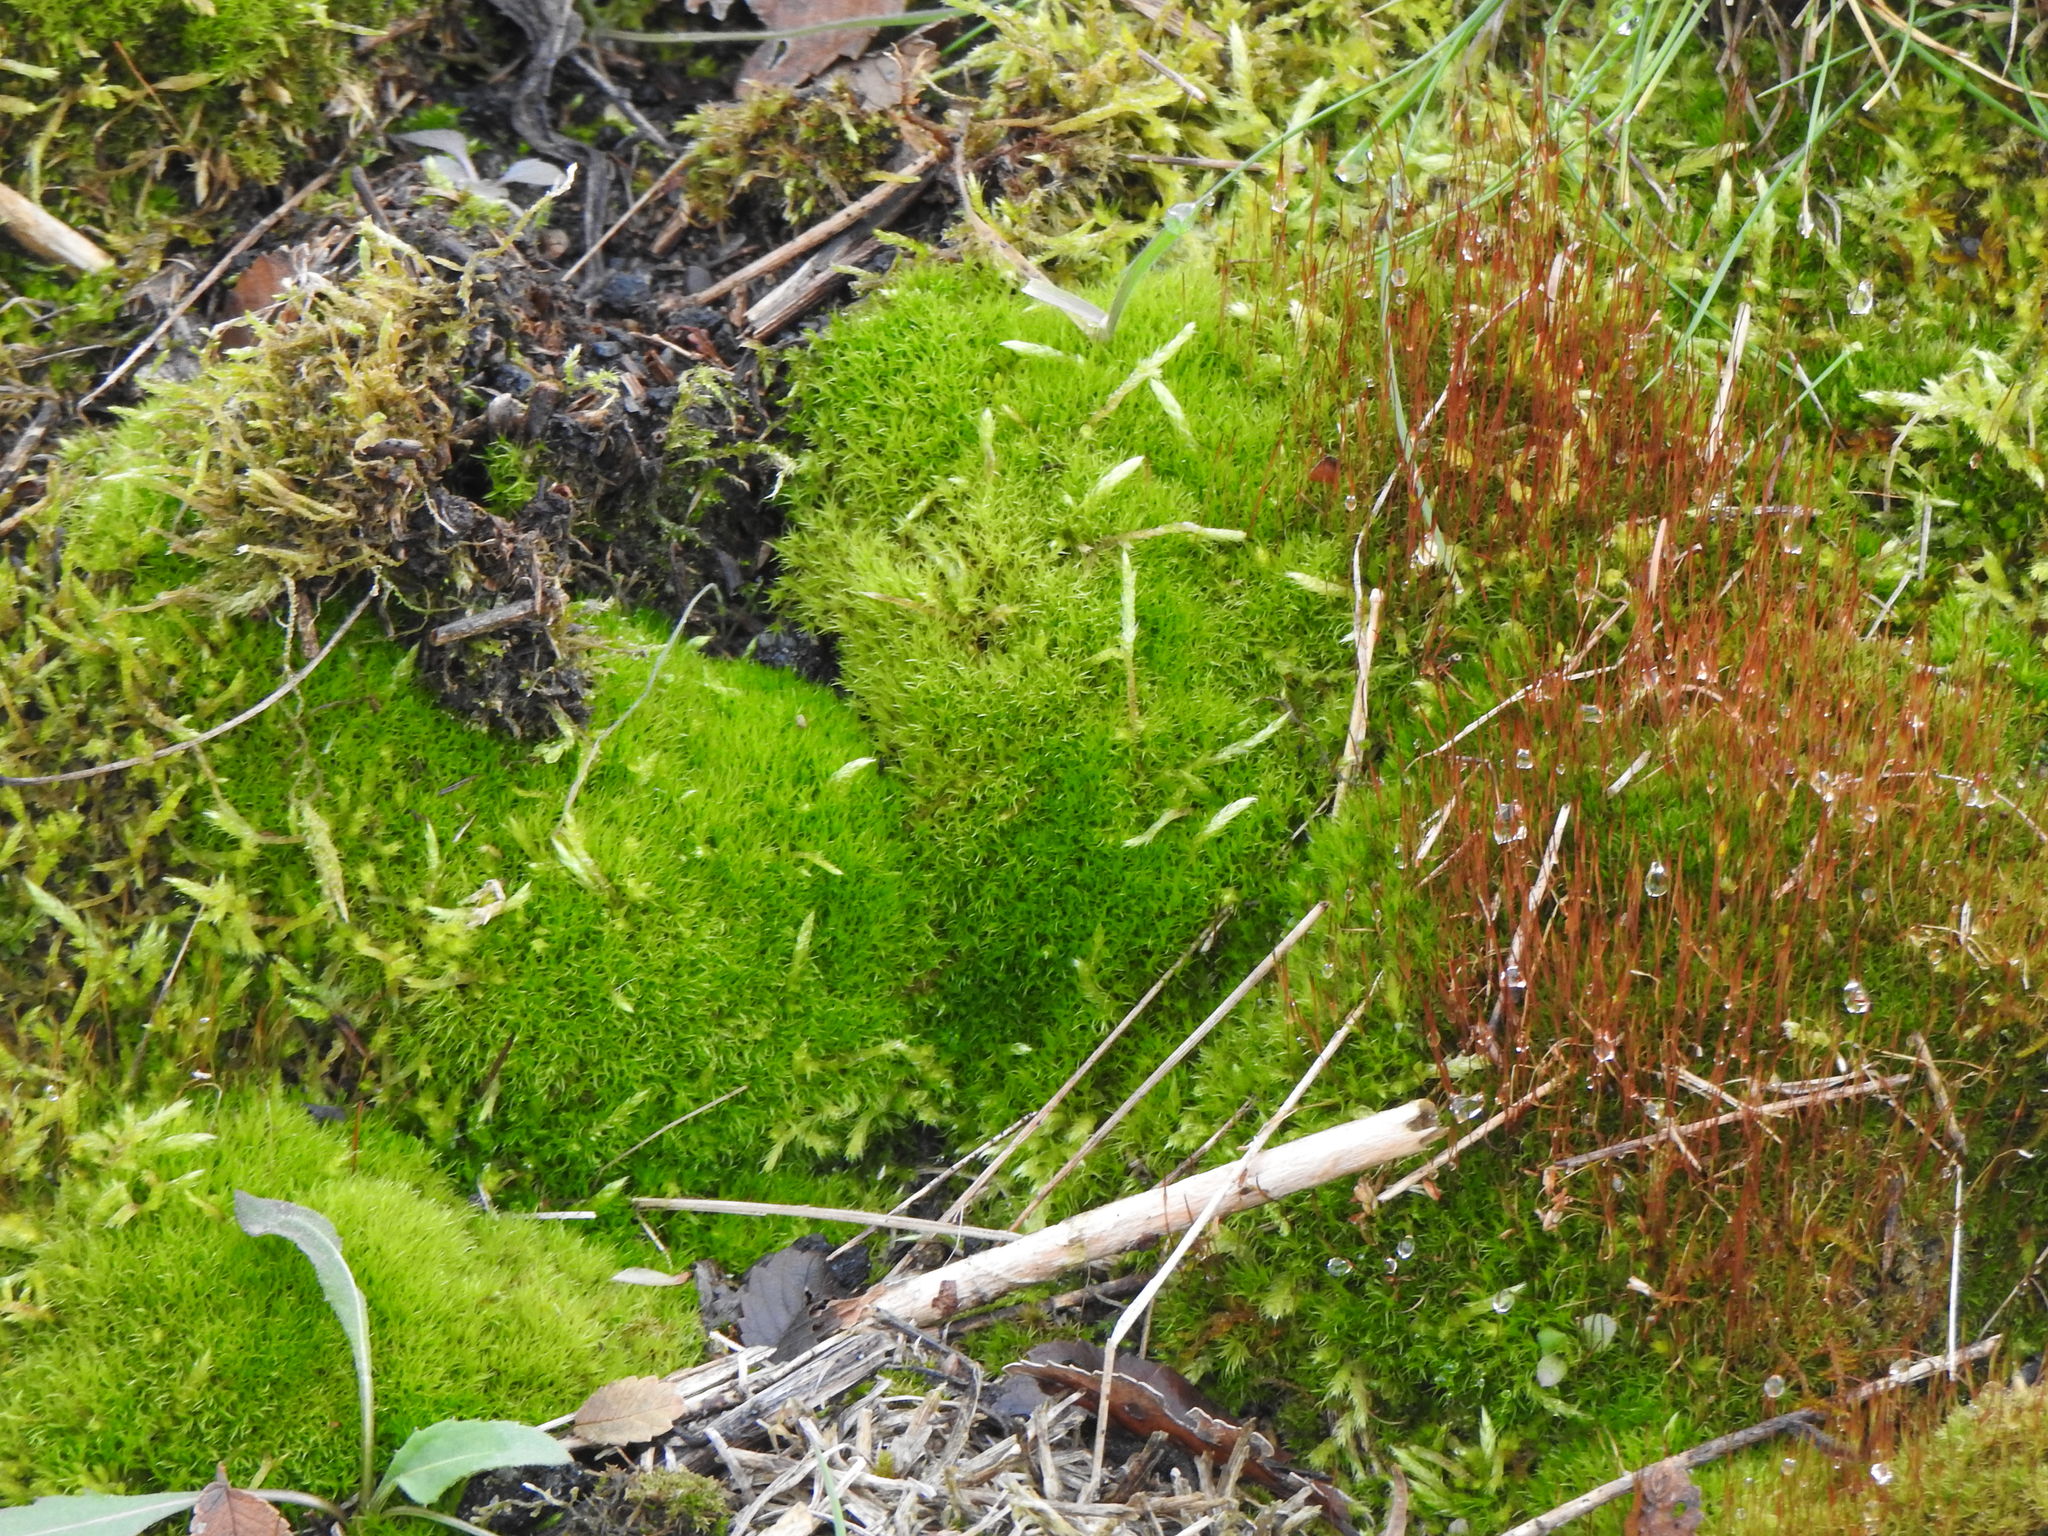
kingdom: Plantae
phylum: Bryophyta
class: Bryopsida
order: Dicranales
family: Ditrichaceae
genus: Ceratodon
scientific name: Ceratodon purpureus
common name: Redshank
